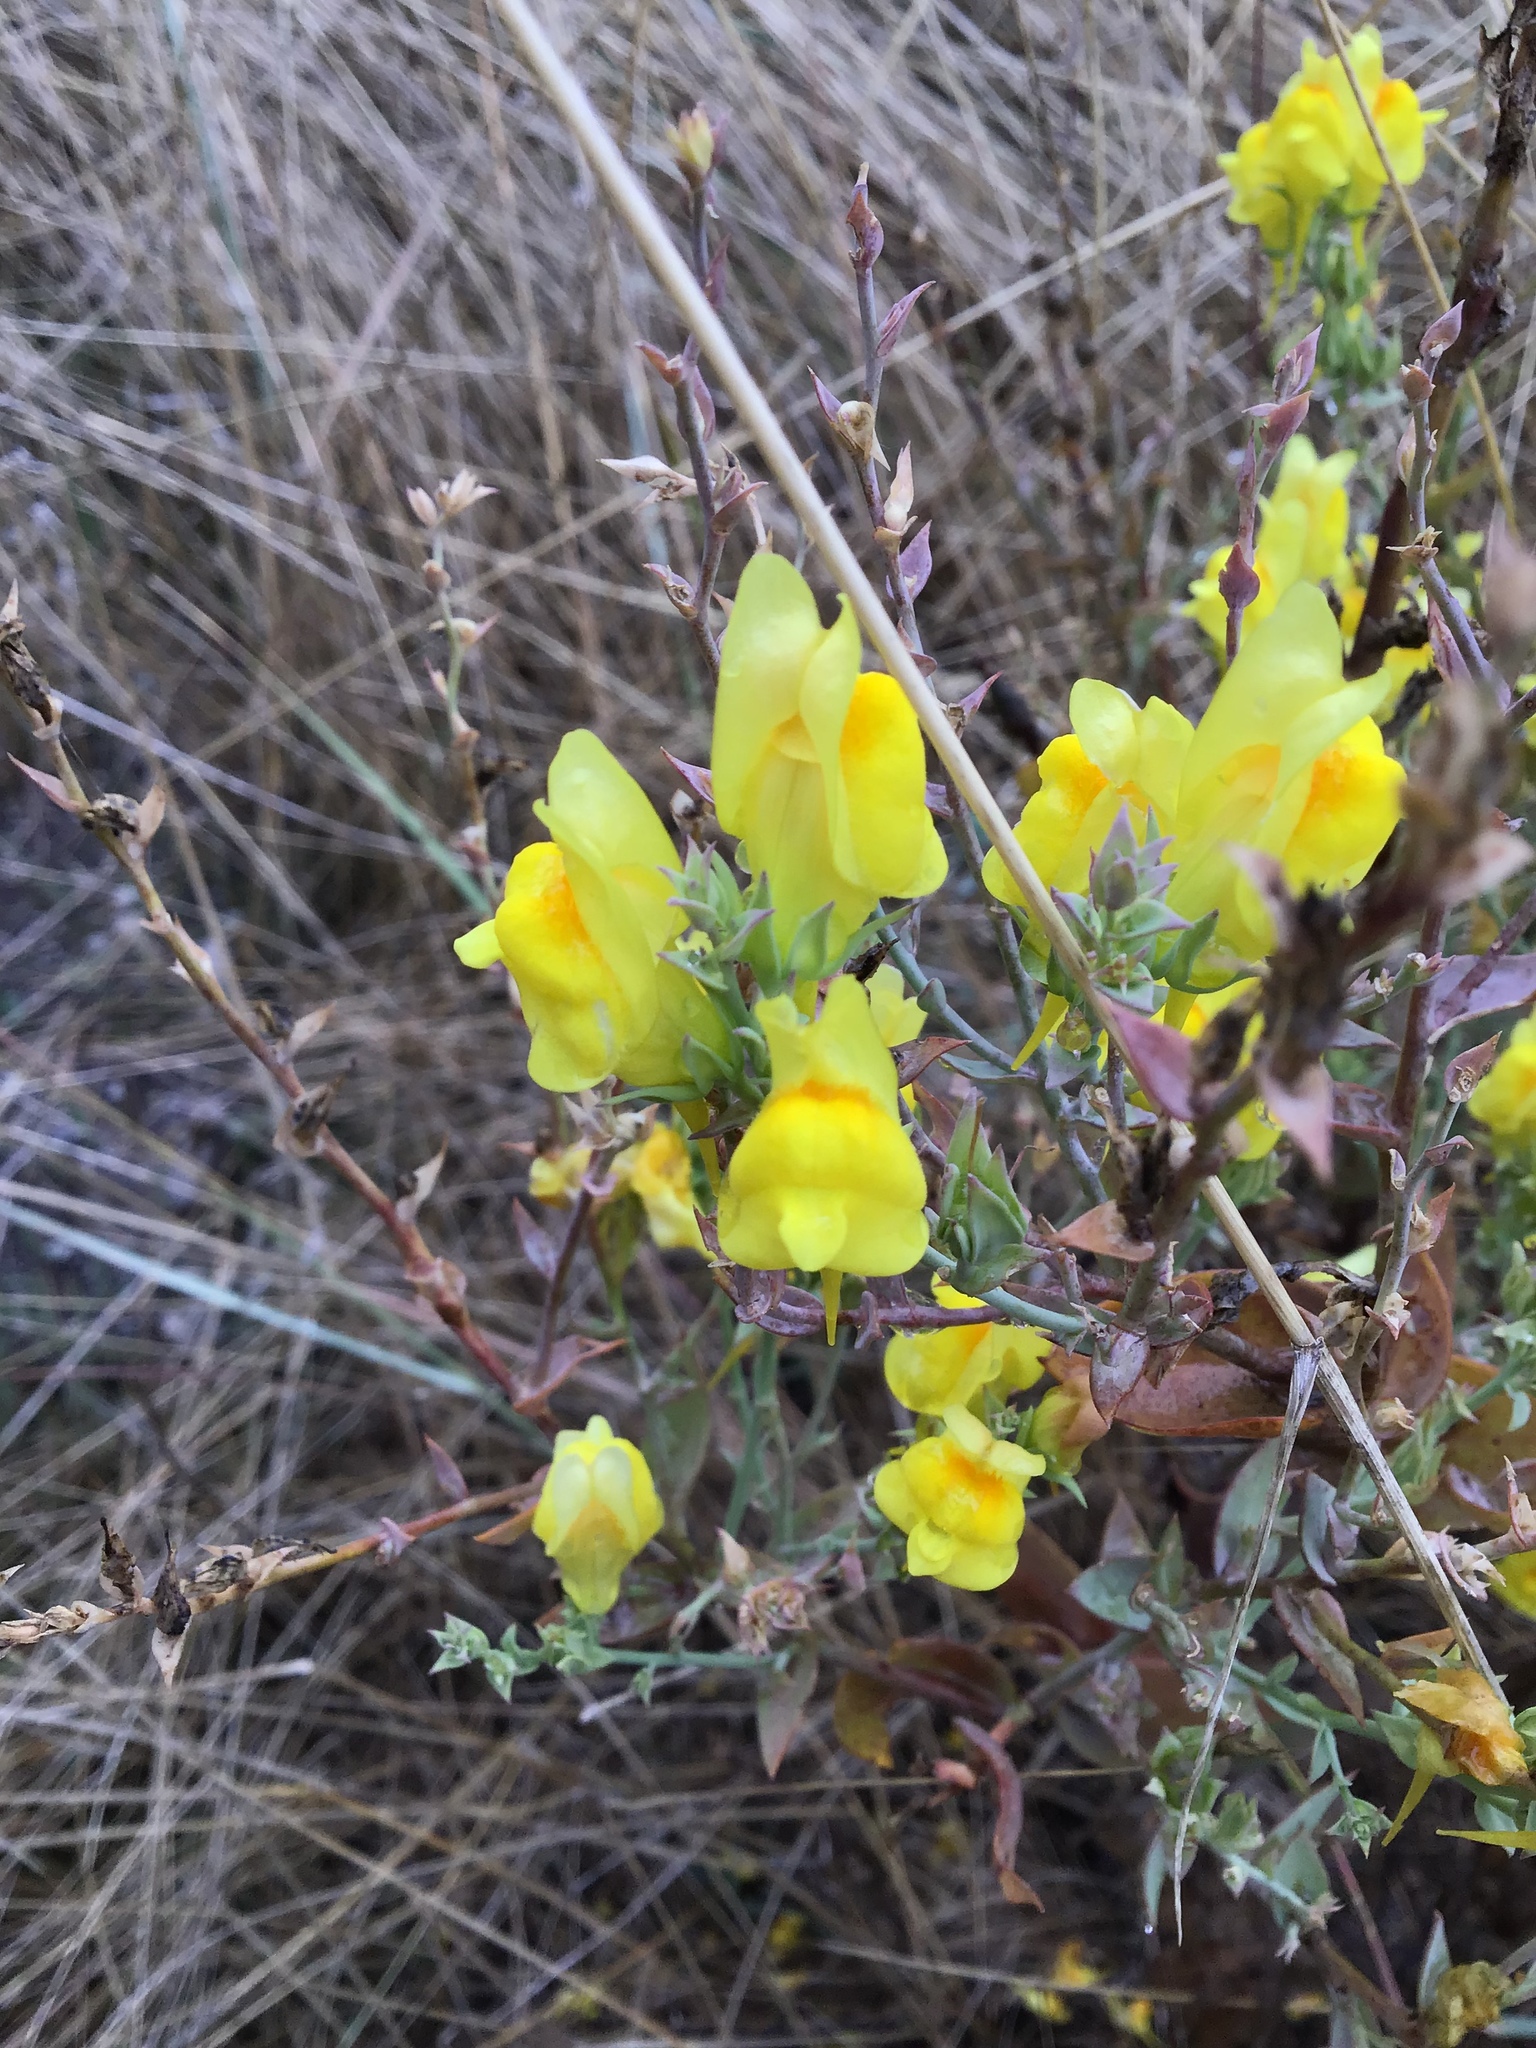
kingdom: Plantae
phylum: Tracheophyta
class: Magnoliopsida
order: Lamiales
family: Plantaginaceae
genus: Linaria
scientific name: Linaria dalmatica
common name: Dalmatian toadflax
